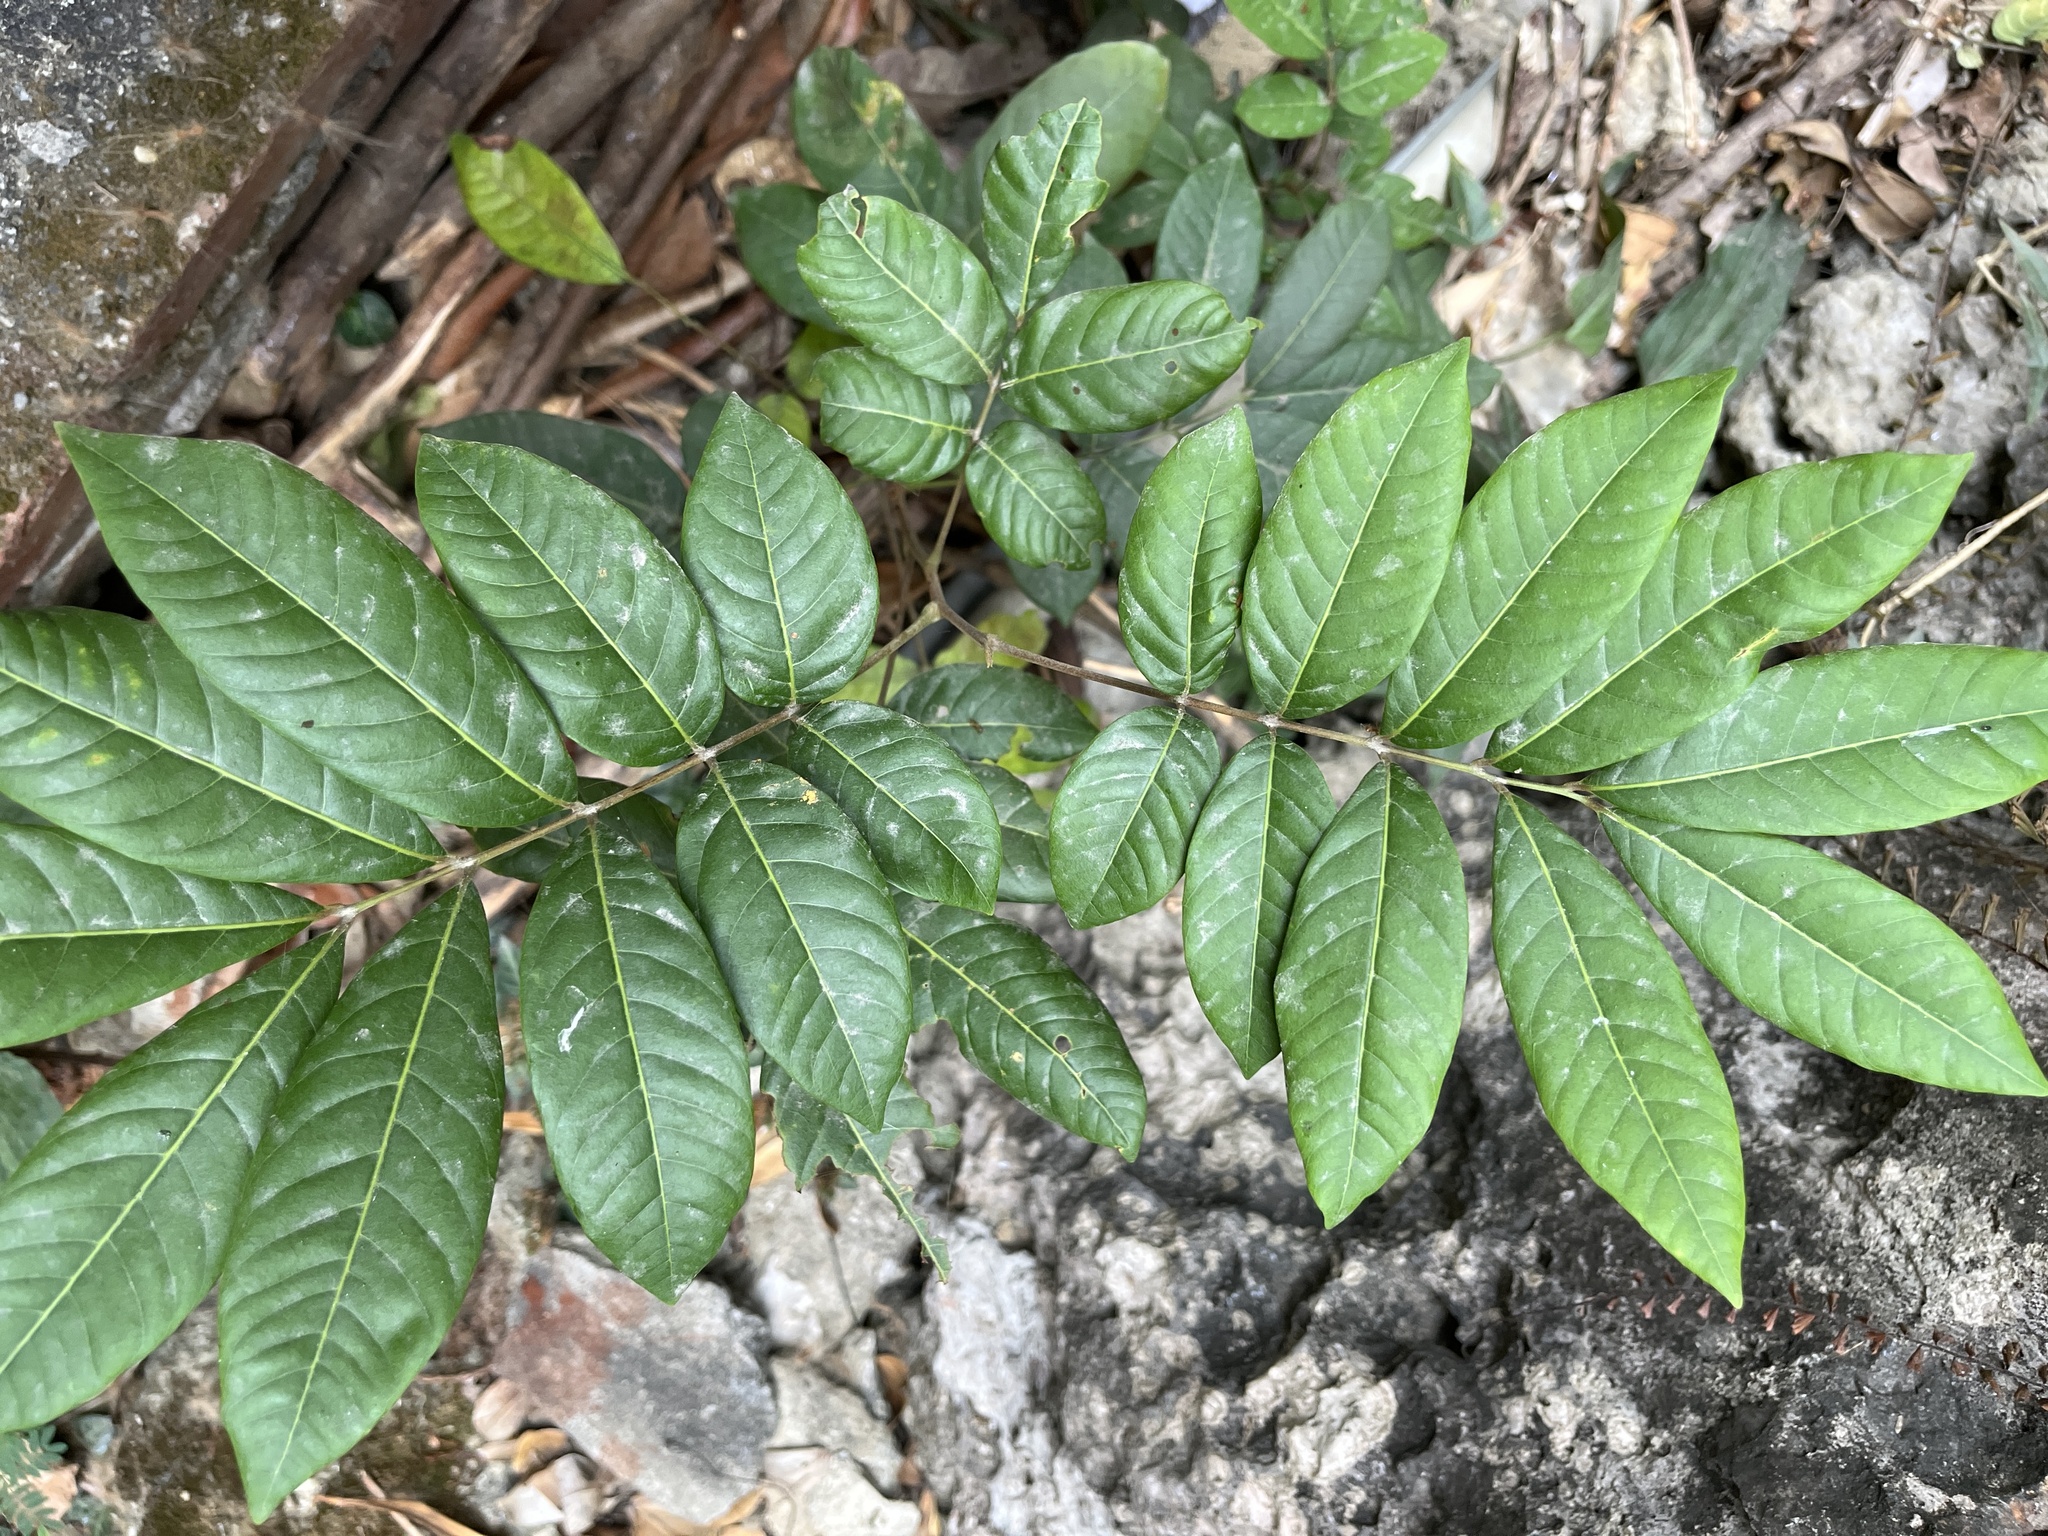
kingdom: Plantae
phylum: Tracheophyta
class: Magnoliopsida
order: Sapindales
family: Sapindaceae
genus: Dimocarpus
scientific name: Dimocarpus longan
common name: Longan
